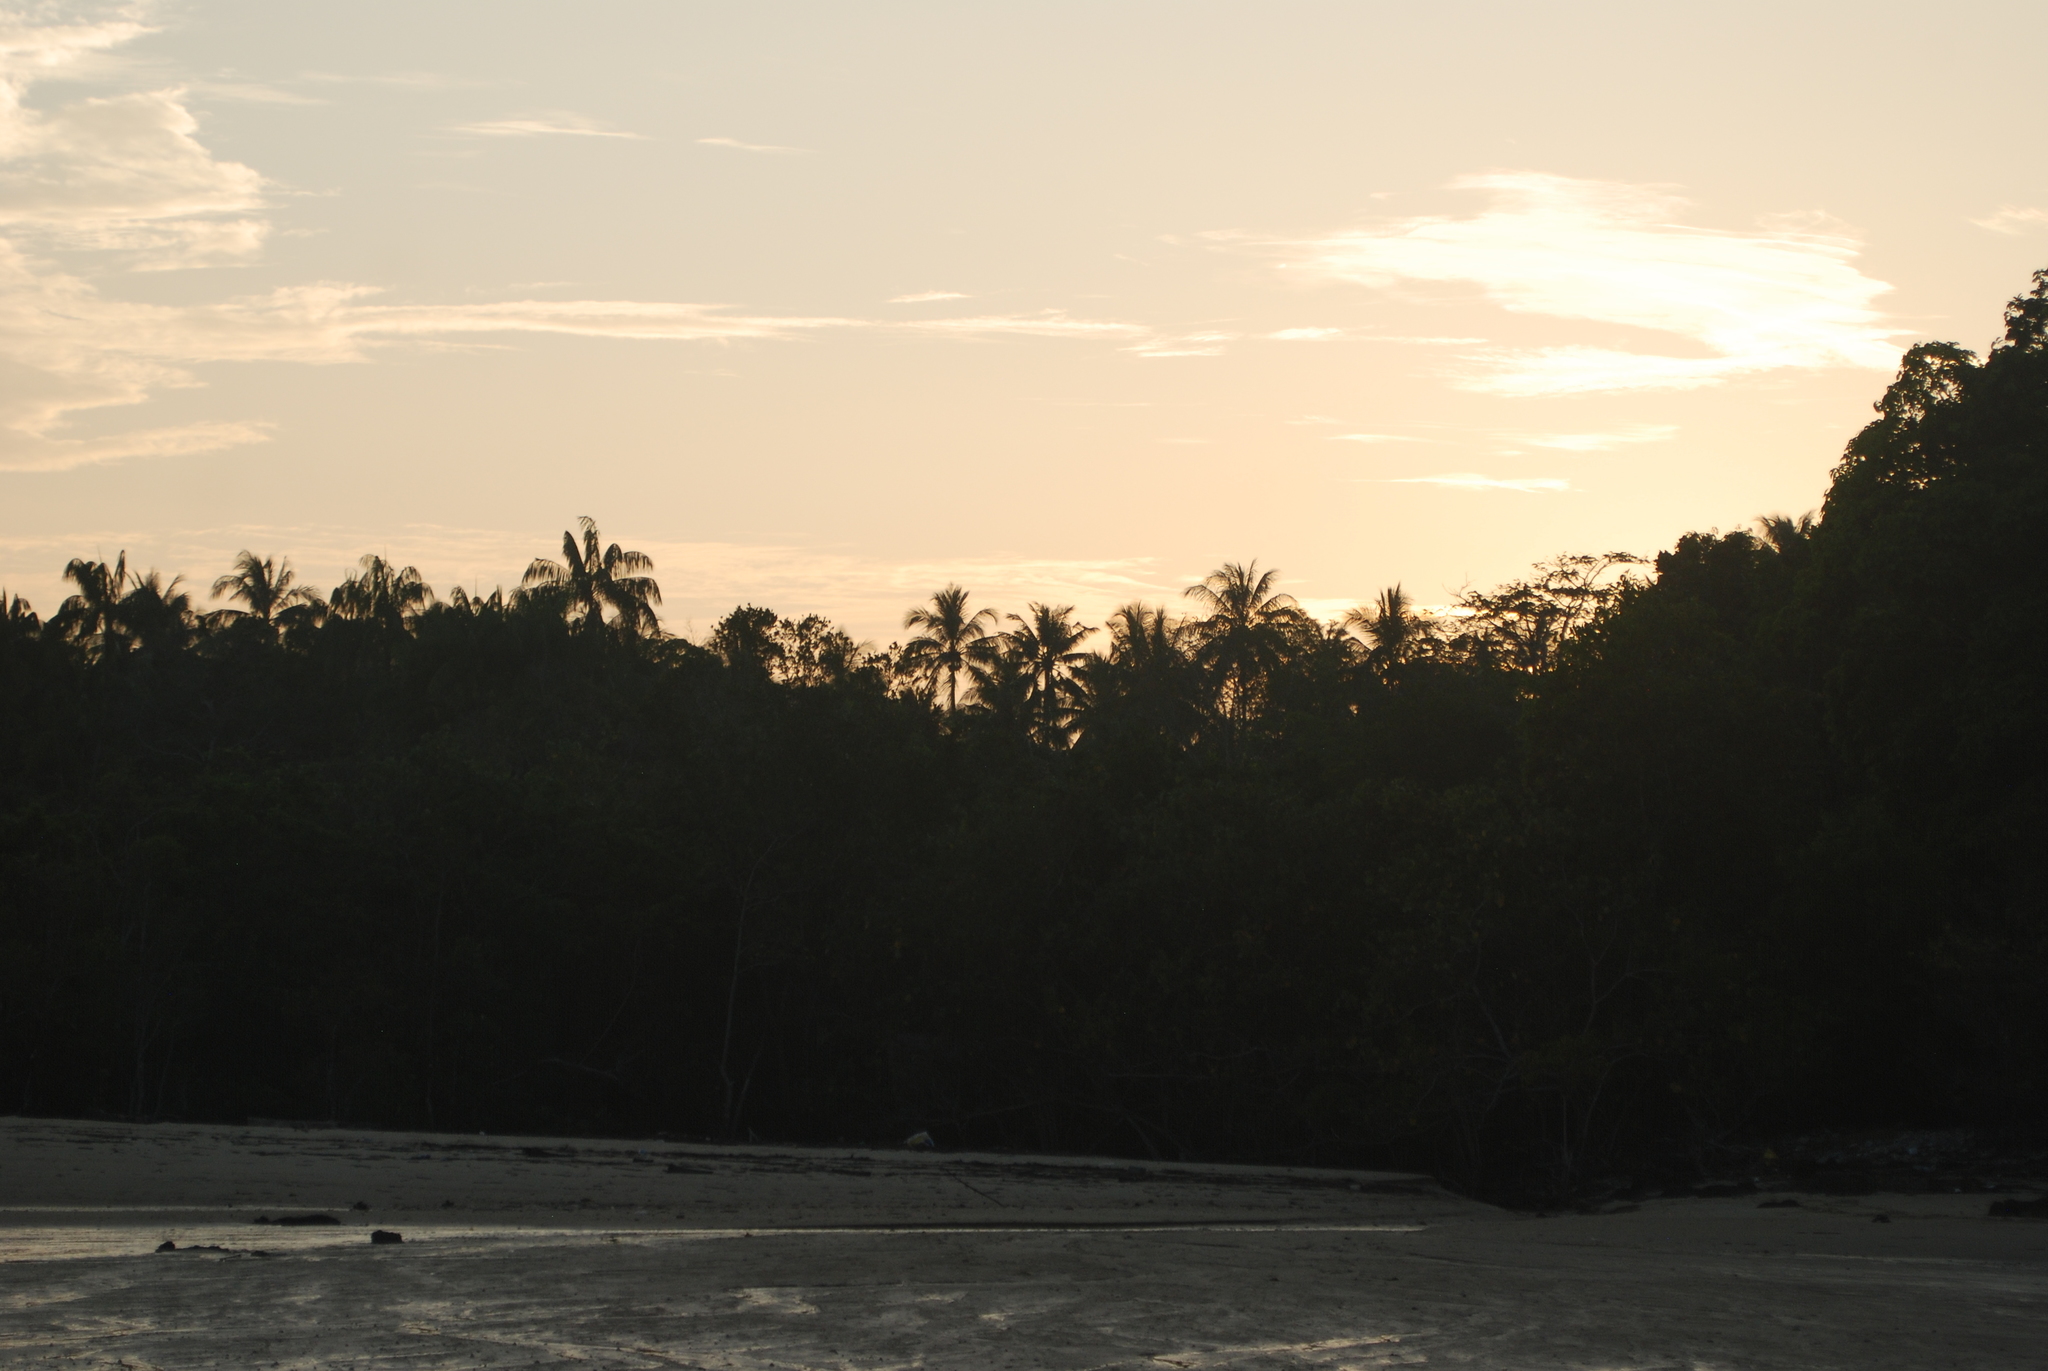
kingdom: Plantae
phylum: Tracheophyta
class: Liliopsida
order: Arecales
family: Arecaceae
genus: Cocos
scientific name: Cocos nucifera
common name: Coconut palm
